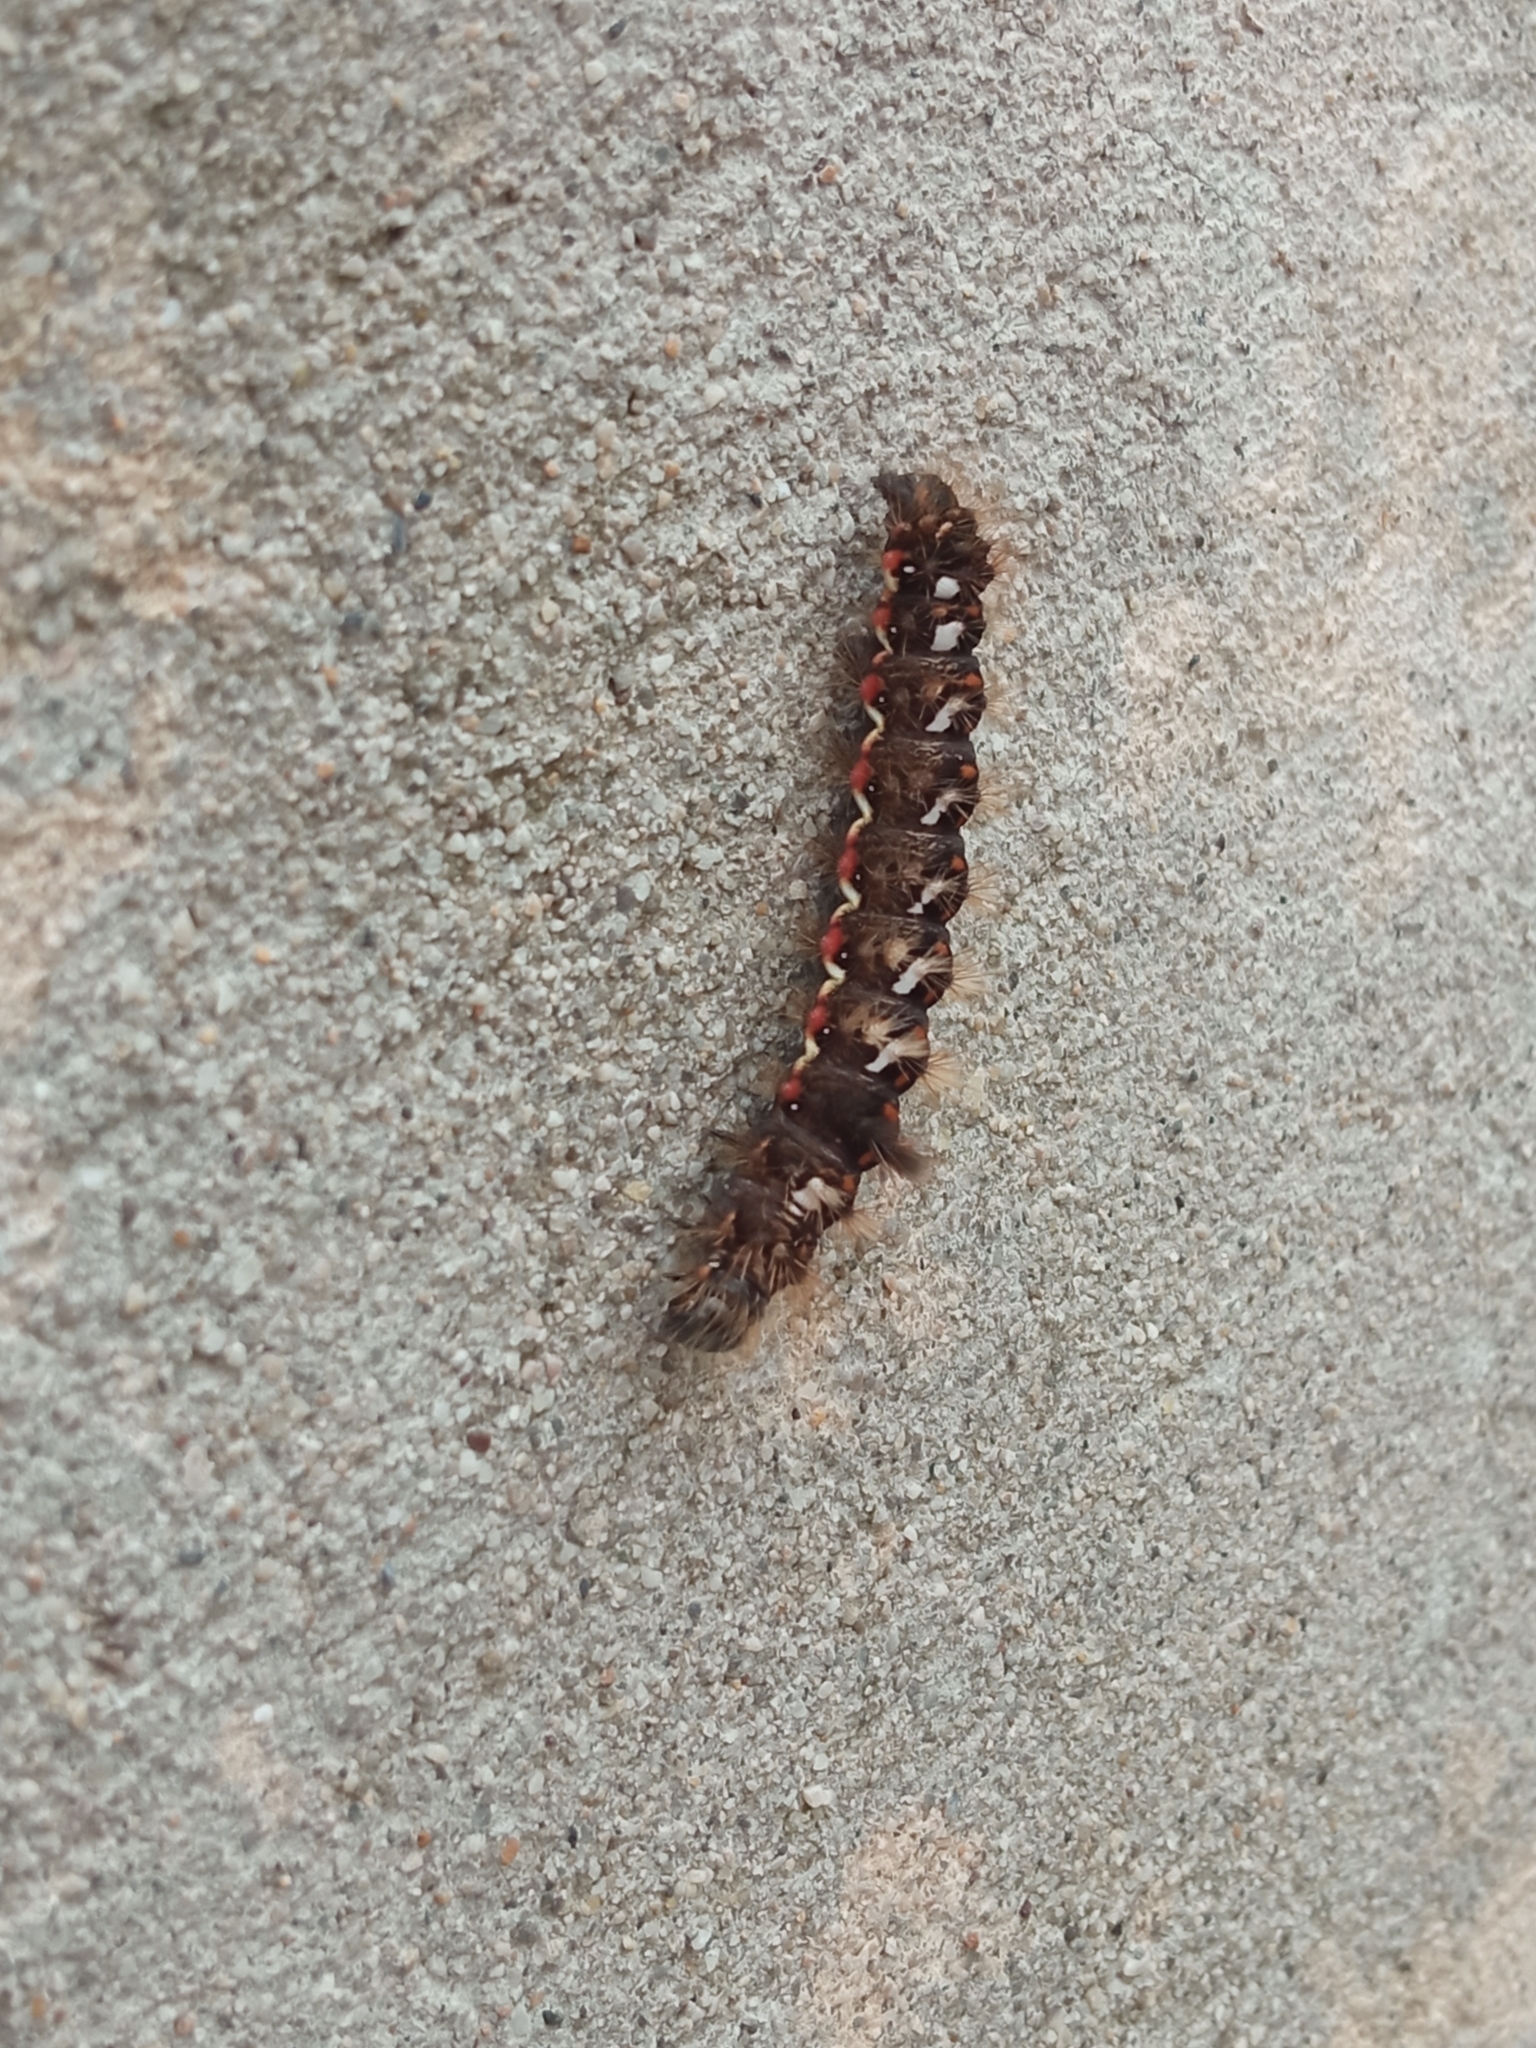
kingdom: Animalia
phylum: Arthropoda
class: Insecta
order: Lepidoptera
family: Noctuidae
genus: Acronicta
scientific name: Acronicta rumicis
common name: Knot grass
